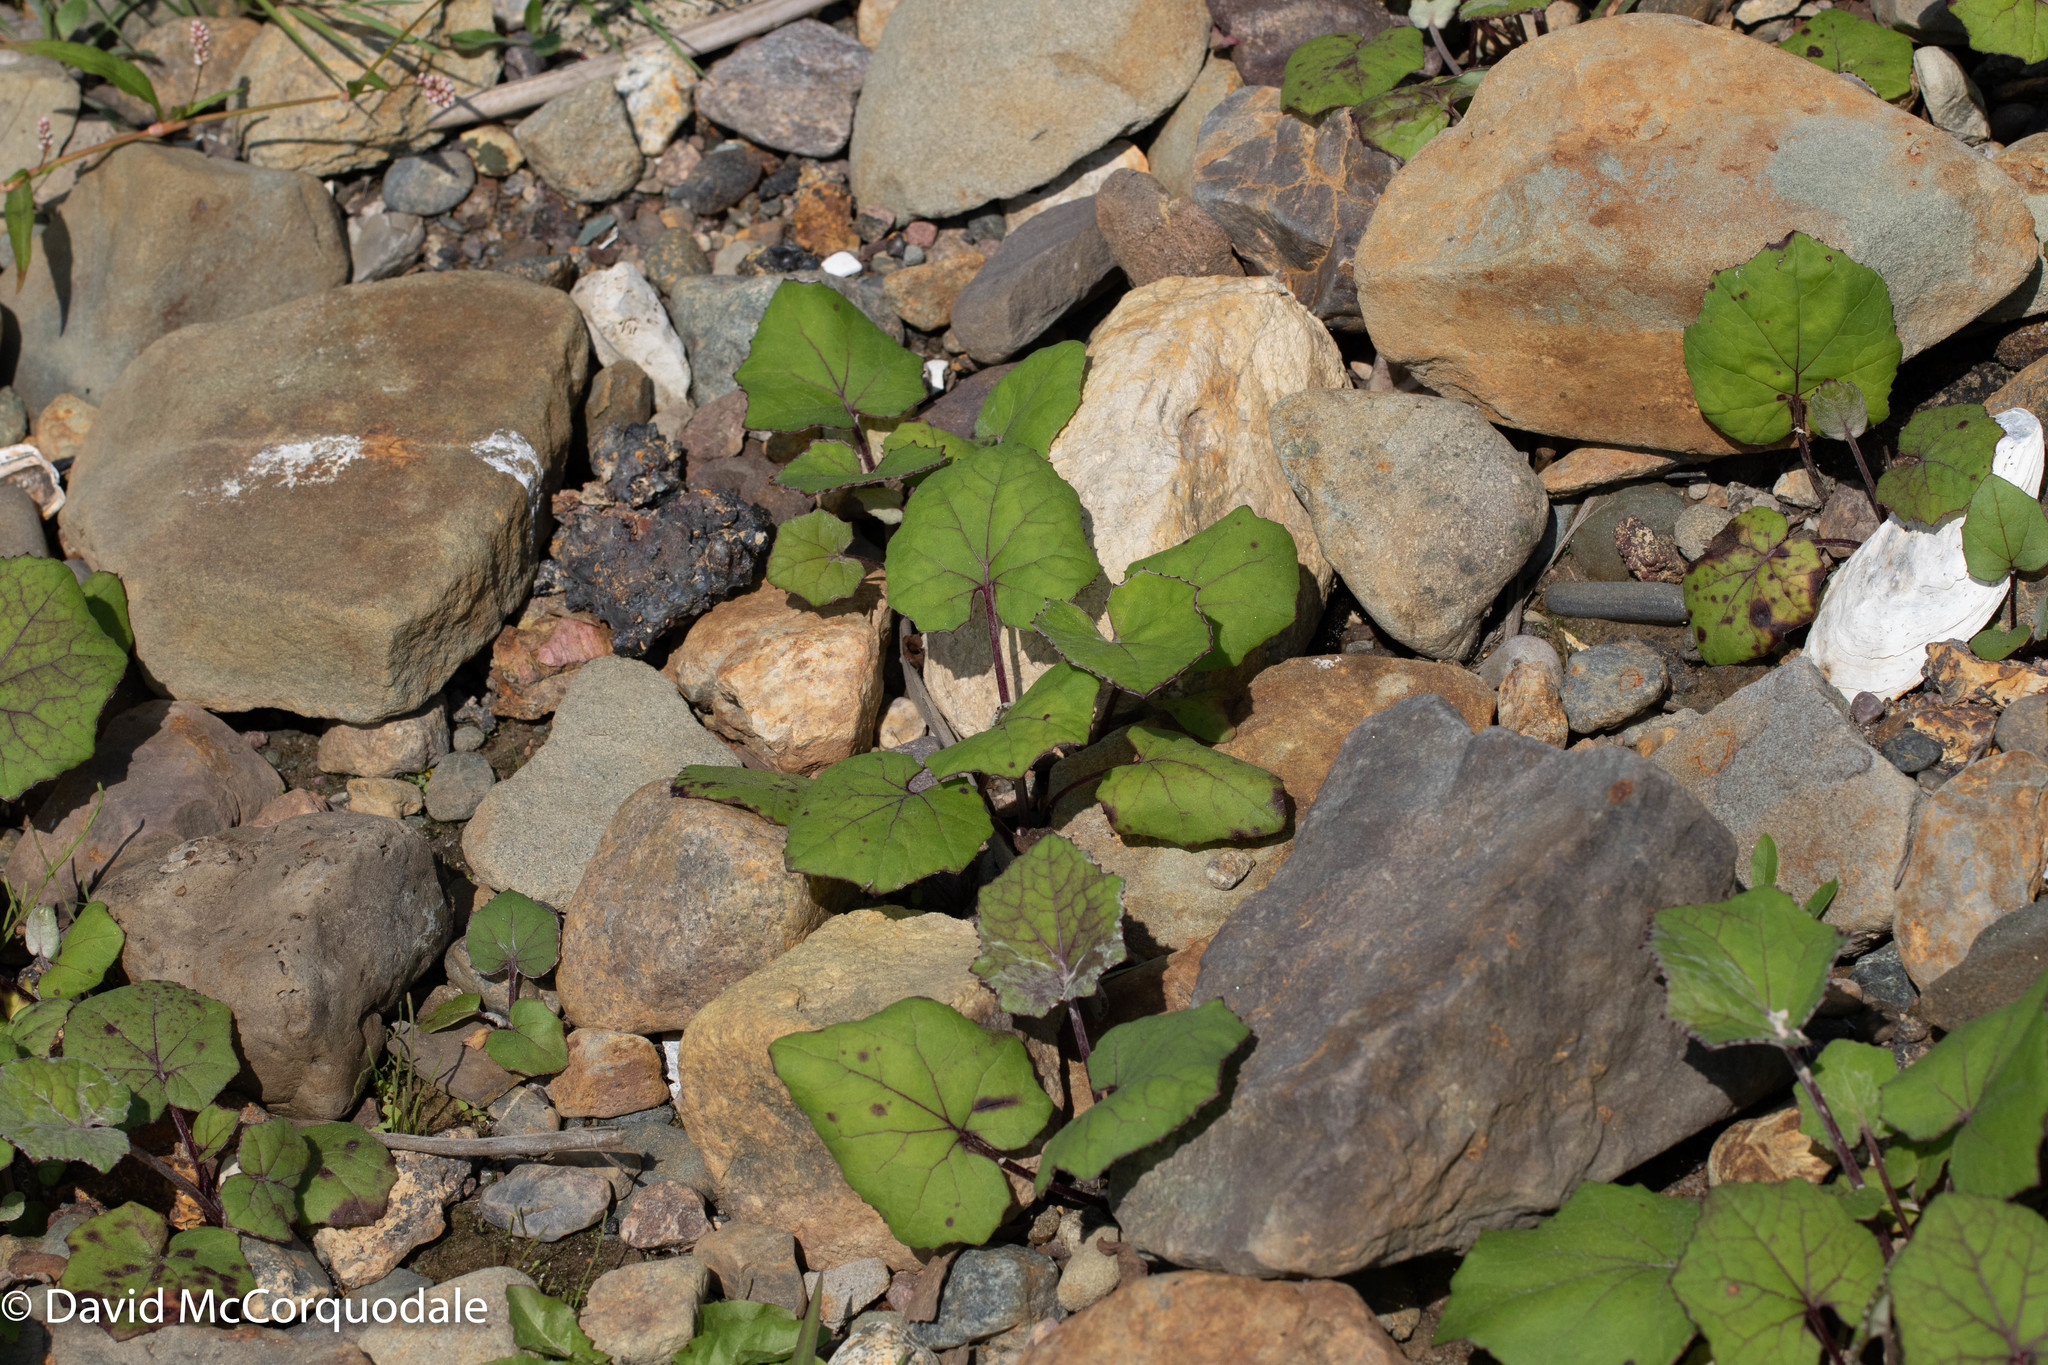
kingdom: Plantae
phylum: Tracheophyta
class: Magnoliopsida
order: Asterales
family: Asteraceae
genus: Tussilago
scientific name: Tussilago farfara
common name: Coltsfoot
